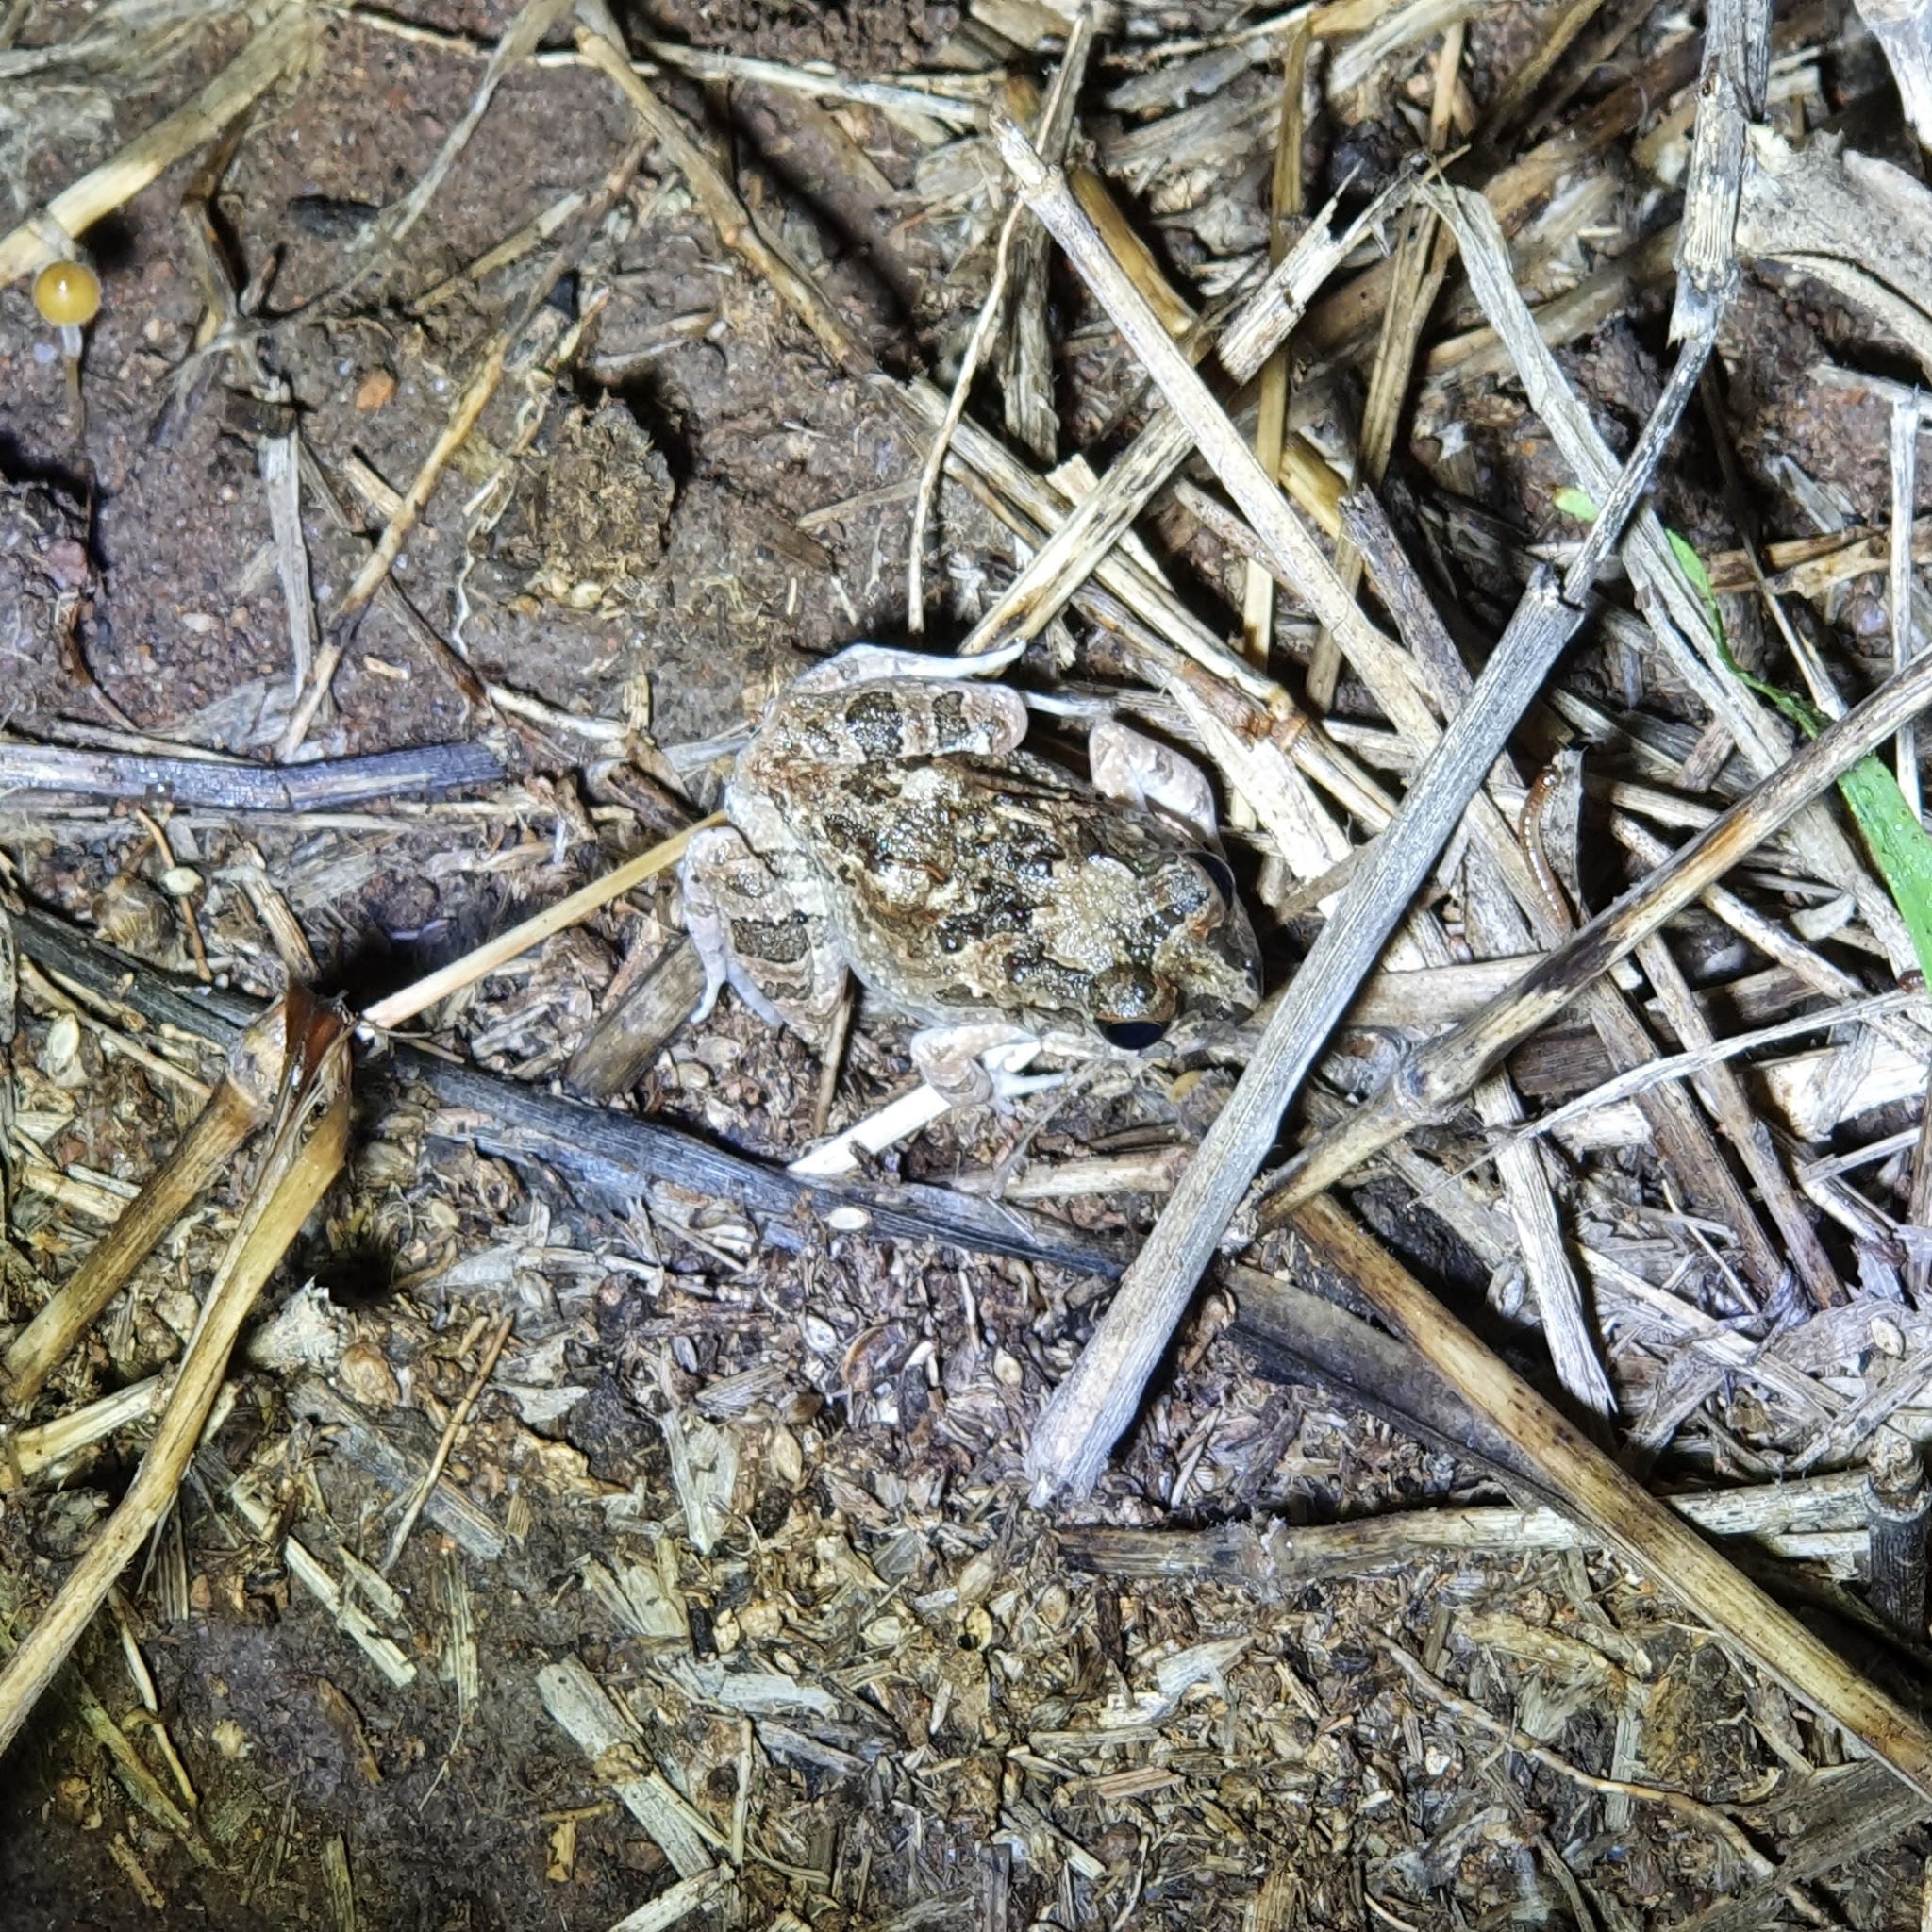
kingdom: Animalia
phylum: Chordata
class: Amphibia
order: Anura
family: Limnodynastidae
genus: Platyplectrum
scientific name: Platyplectrum ornatum
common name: Ornate burrowing frog
